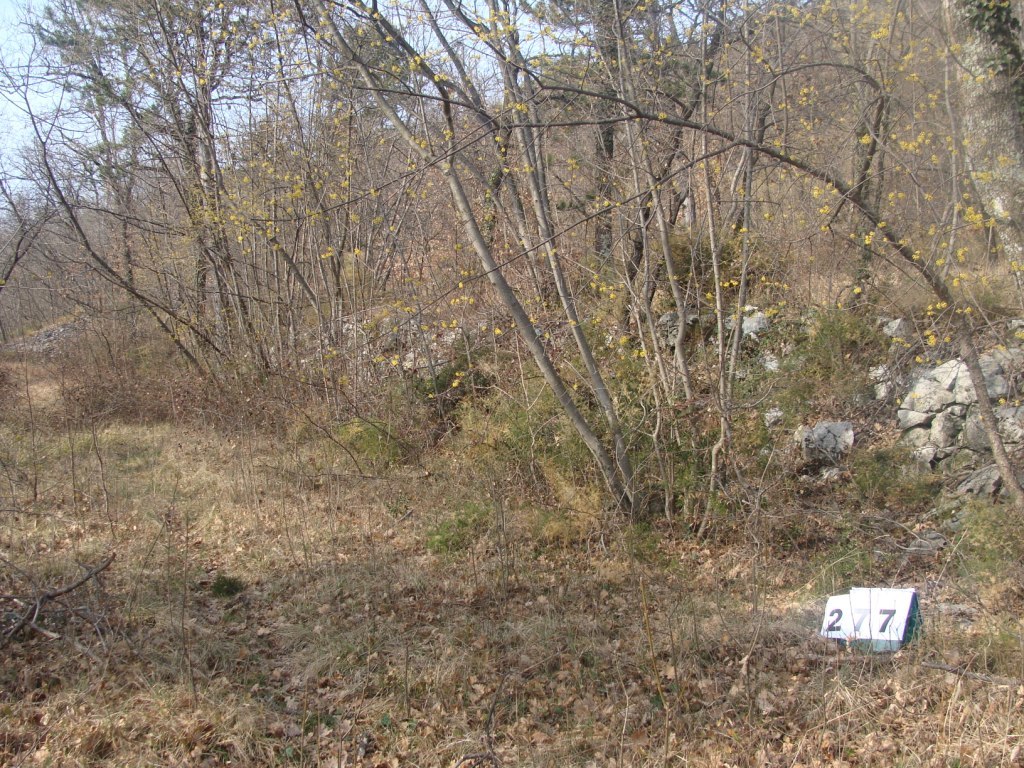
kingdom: Plantae
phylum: Tracheophyta
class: Magnoliopsida
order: Cornales
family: Cornaceae
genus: Cornus
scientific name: Cornus mas
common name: Cornelian-cherry
